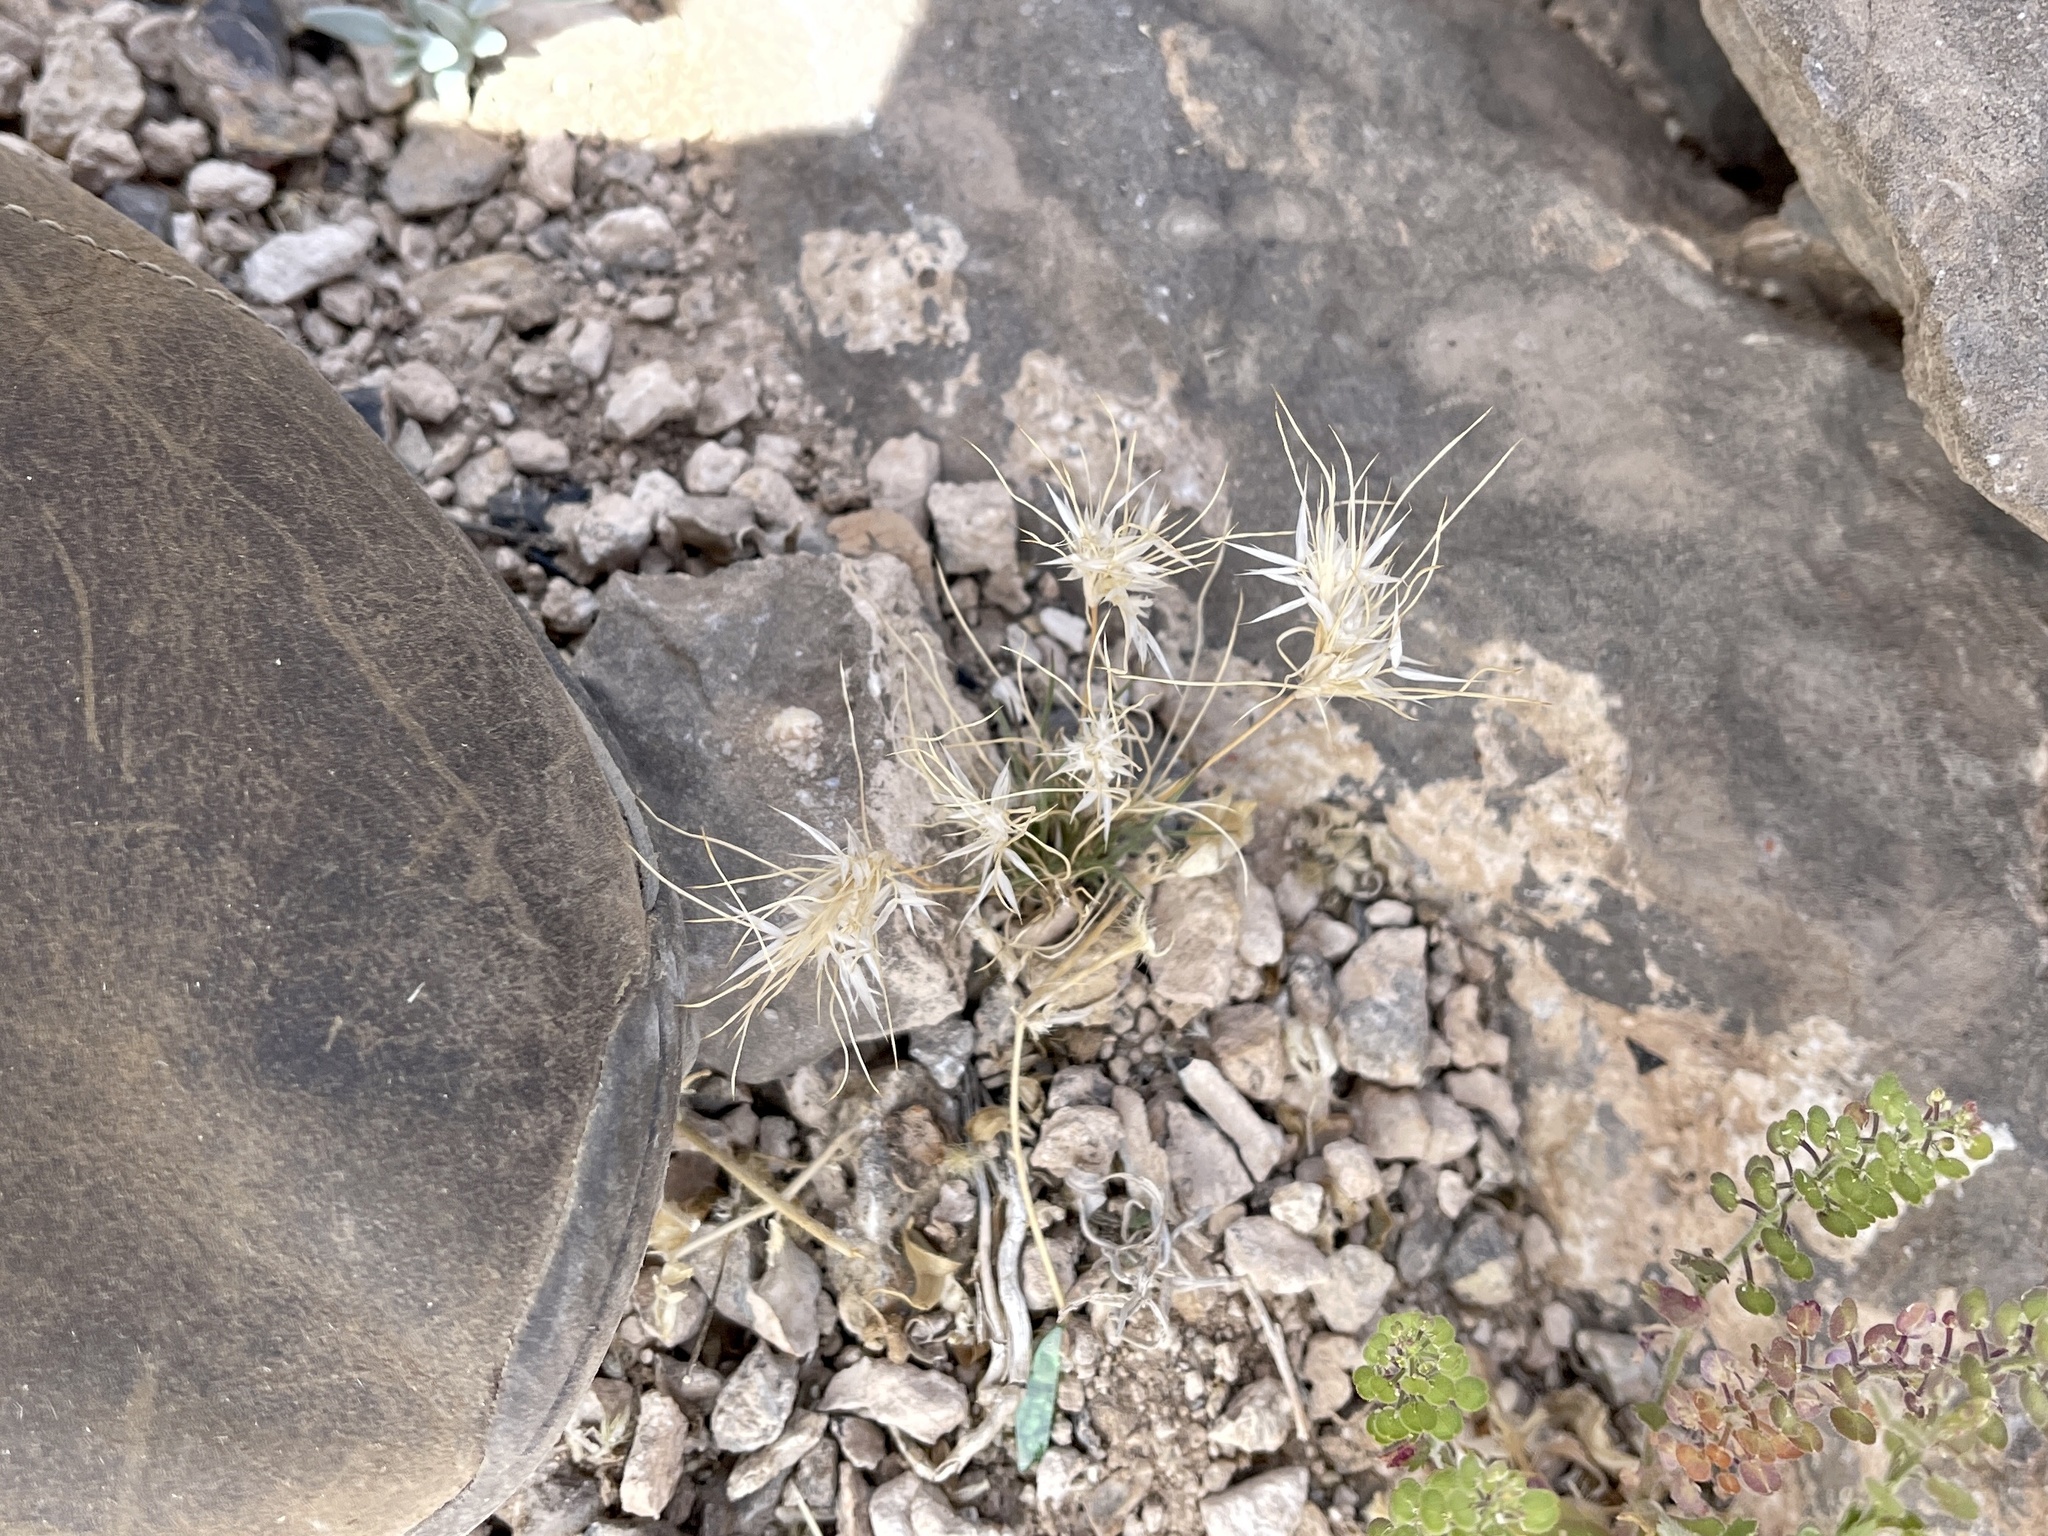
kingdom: Plantae
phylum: Tracheophyta
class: Liliopsida
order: Poales
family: Poaceae
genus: Dasyochloa
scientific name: Dasyochloa pulchella
